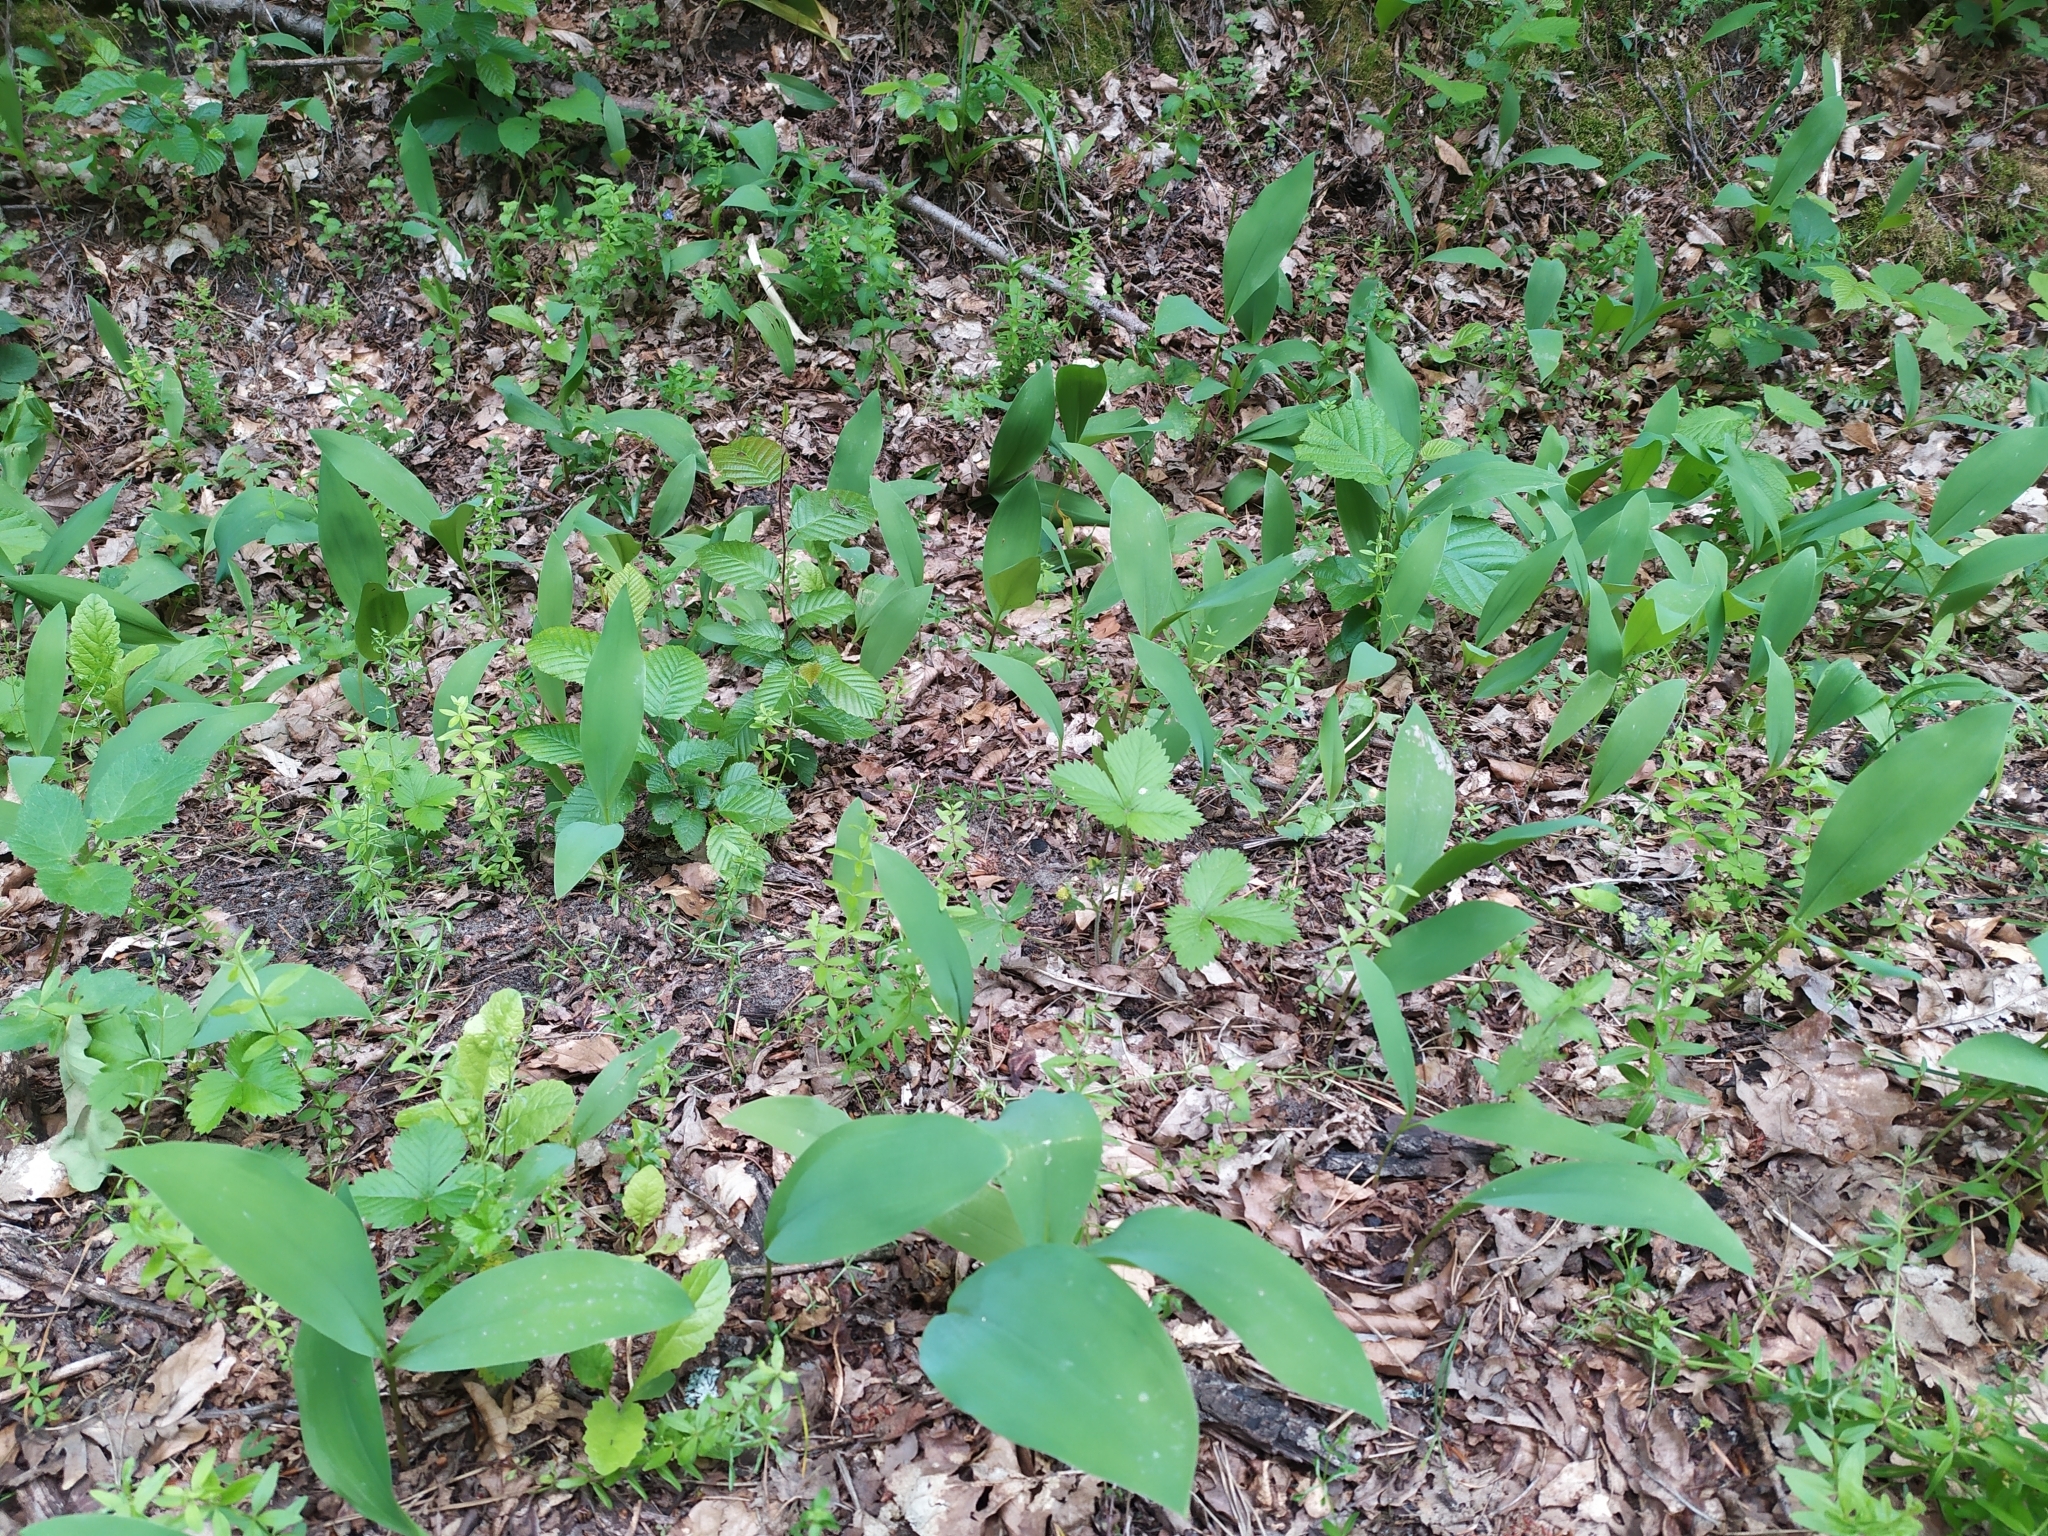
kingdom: Plantae
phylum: Tracheophyta
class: Liliopsida
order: Asparagales
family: Asparagaceae
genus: Convallaria
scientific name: Convallaria majalis
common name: Lily-of-the-valley
